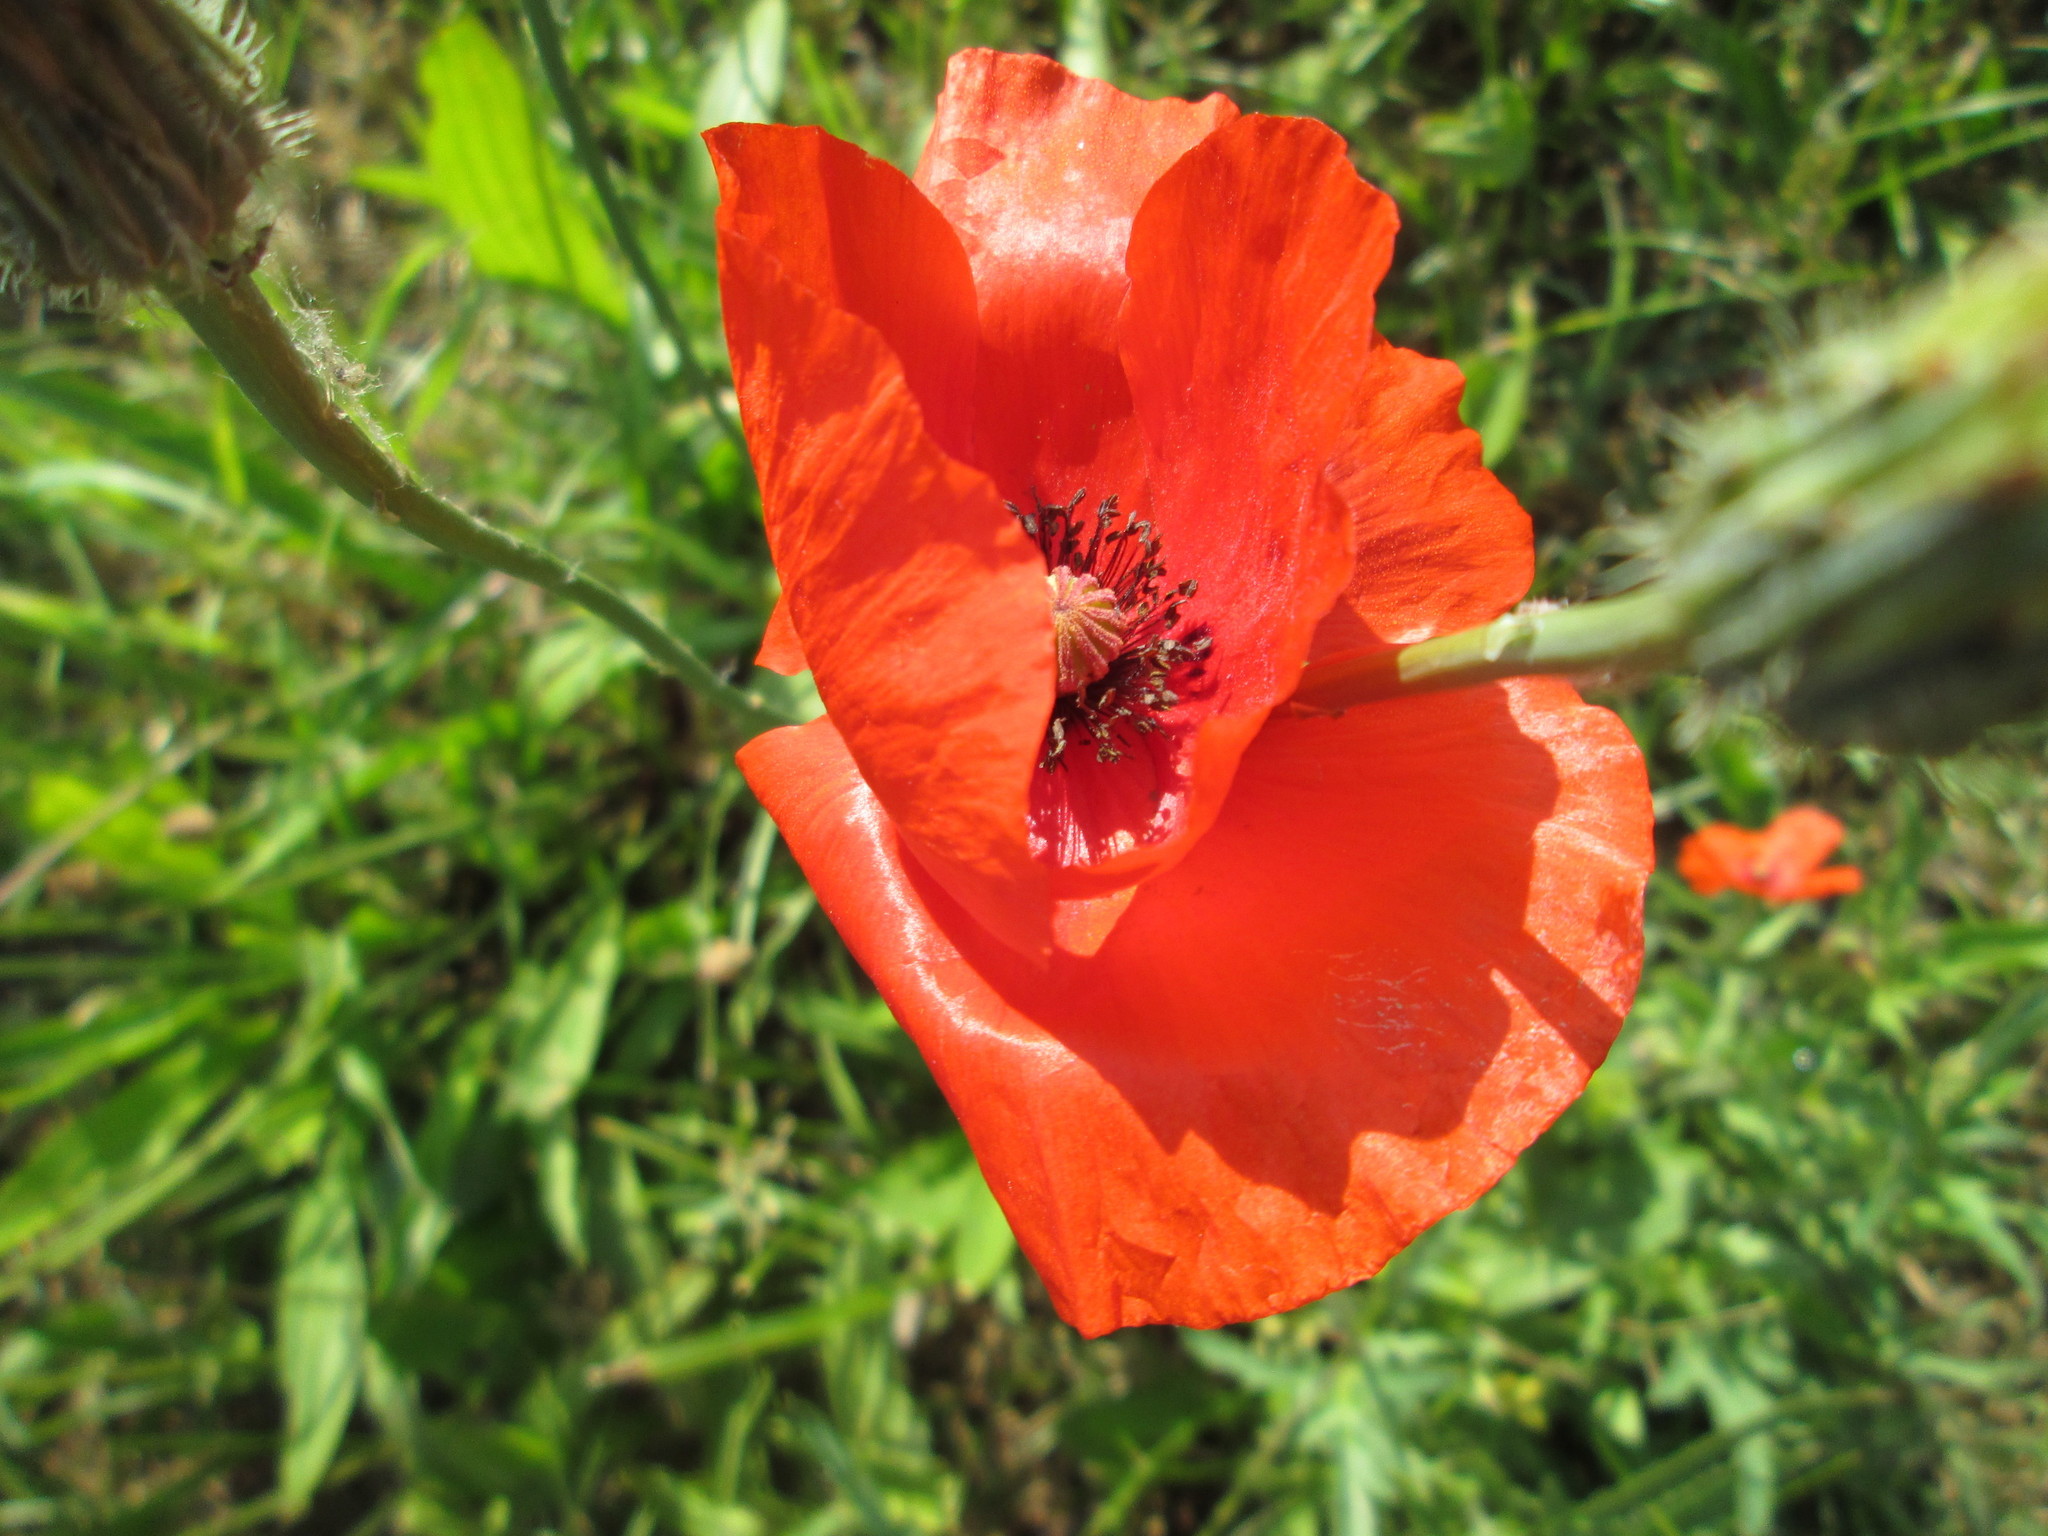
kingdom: Plantae
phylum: Tracheophyta
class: Magnoliopsida
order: Ranunculales
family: Papaveraceae
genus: Papaver
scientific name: Papaver rhoeas
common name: Corn poppy
